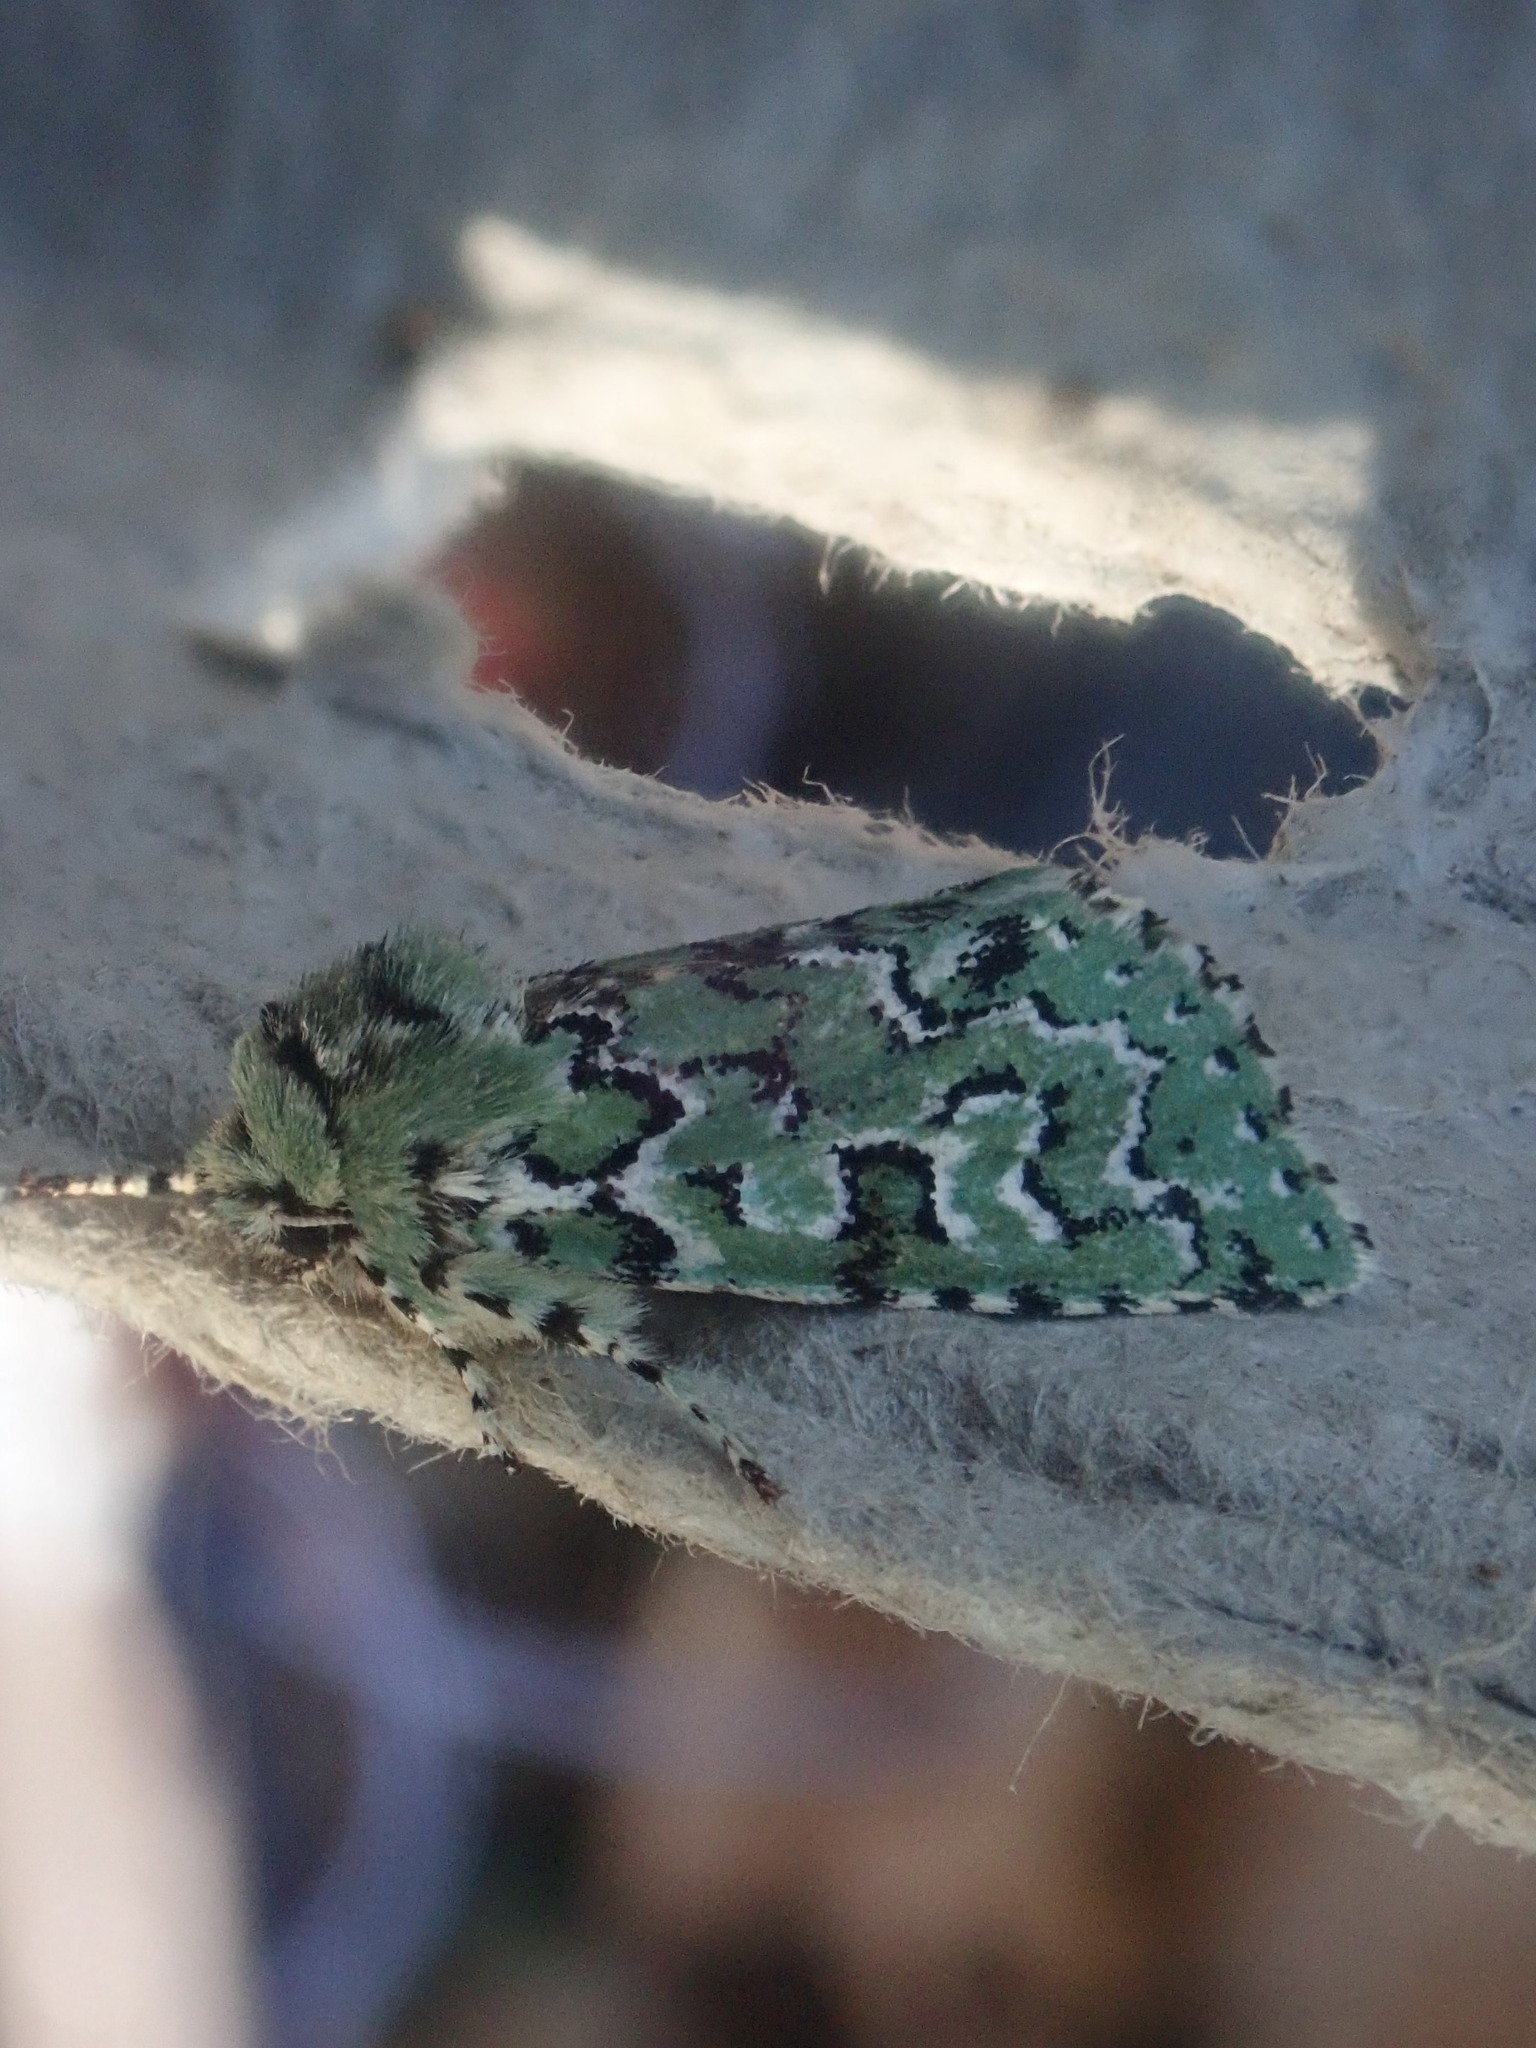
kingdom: Animalia
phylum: Arthropoda
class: Insecta
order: Lepidoptera
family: Noctuidae
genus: Feralia
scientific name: Feralia jocosa
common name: Joker
